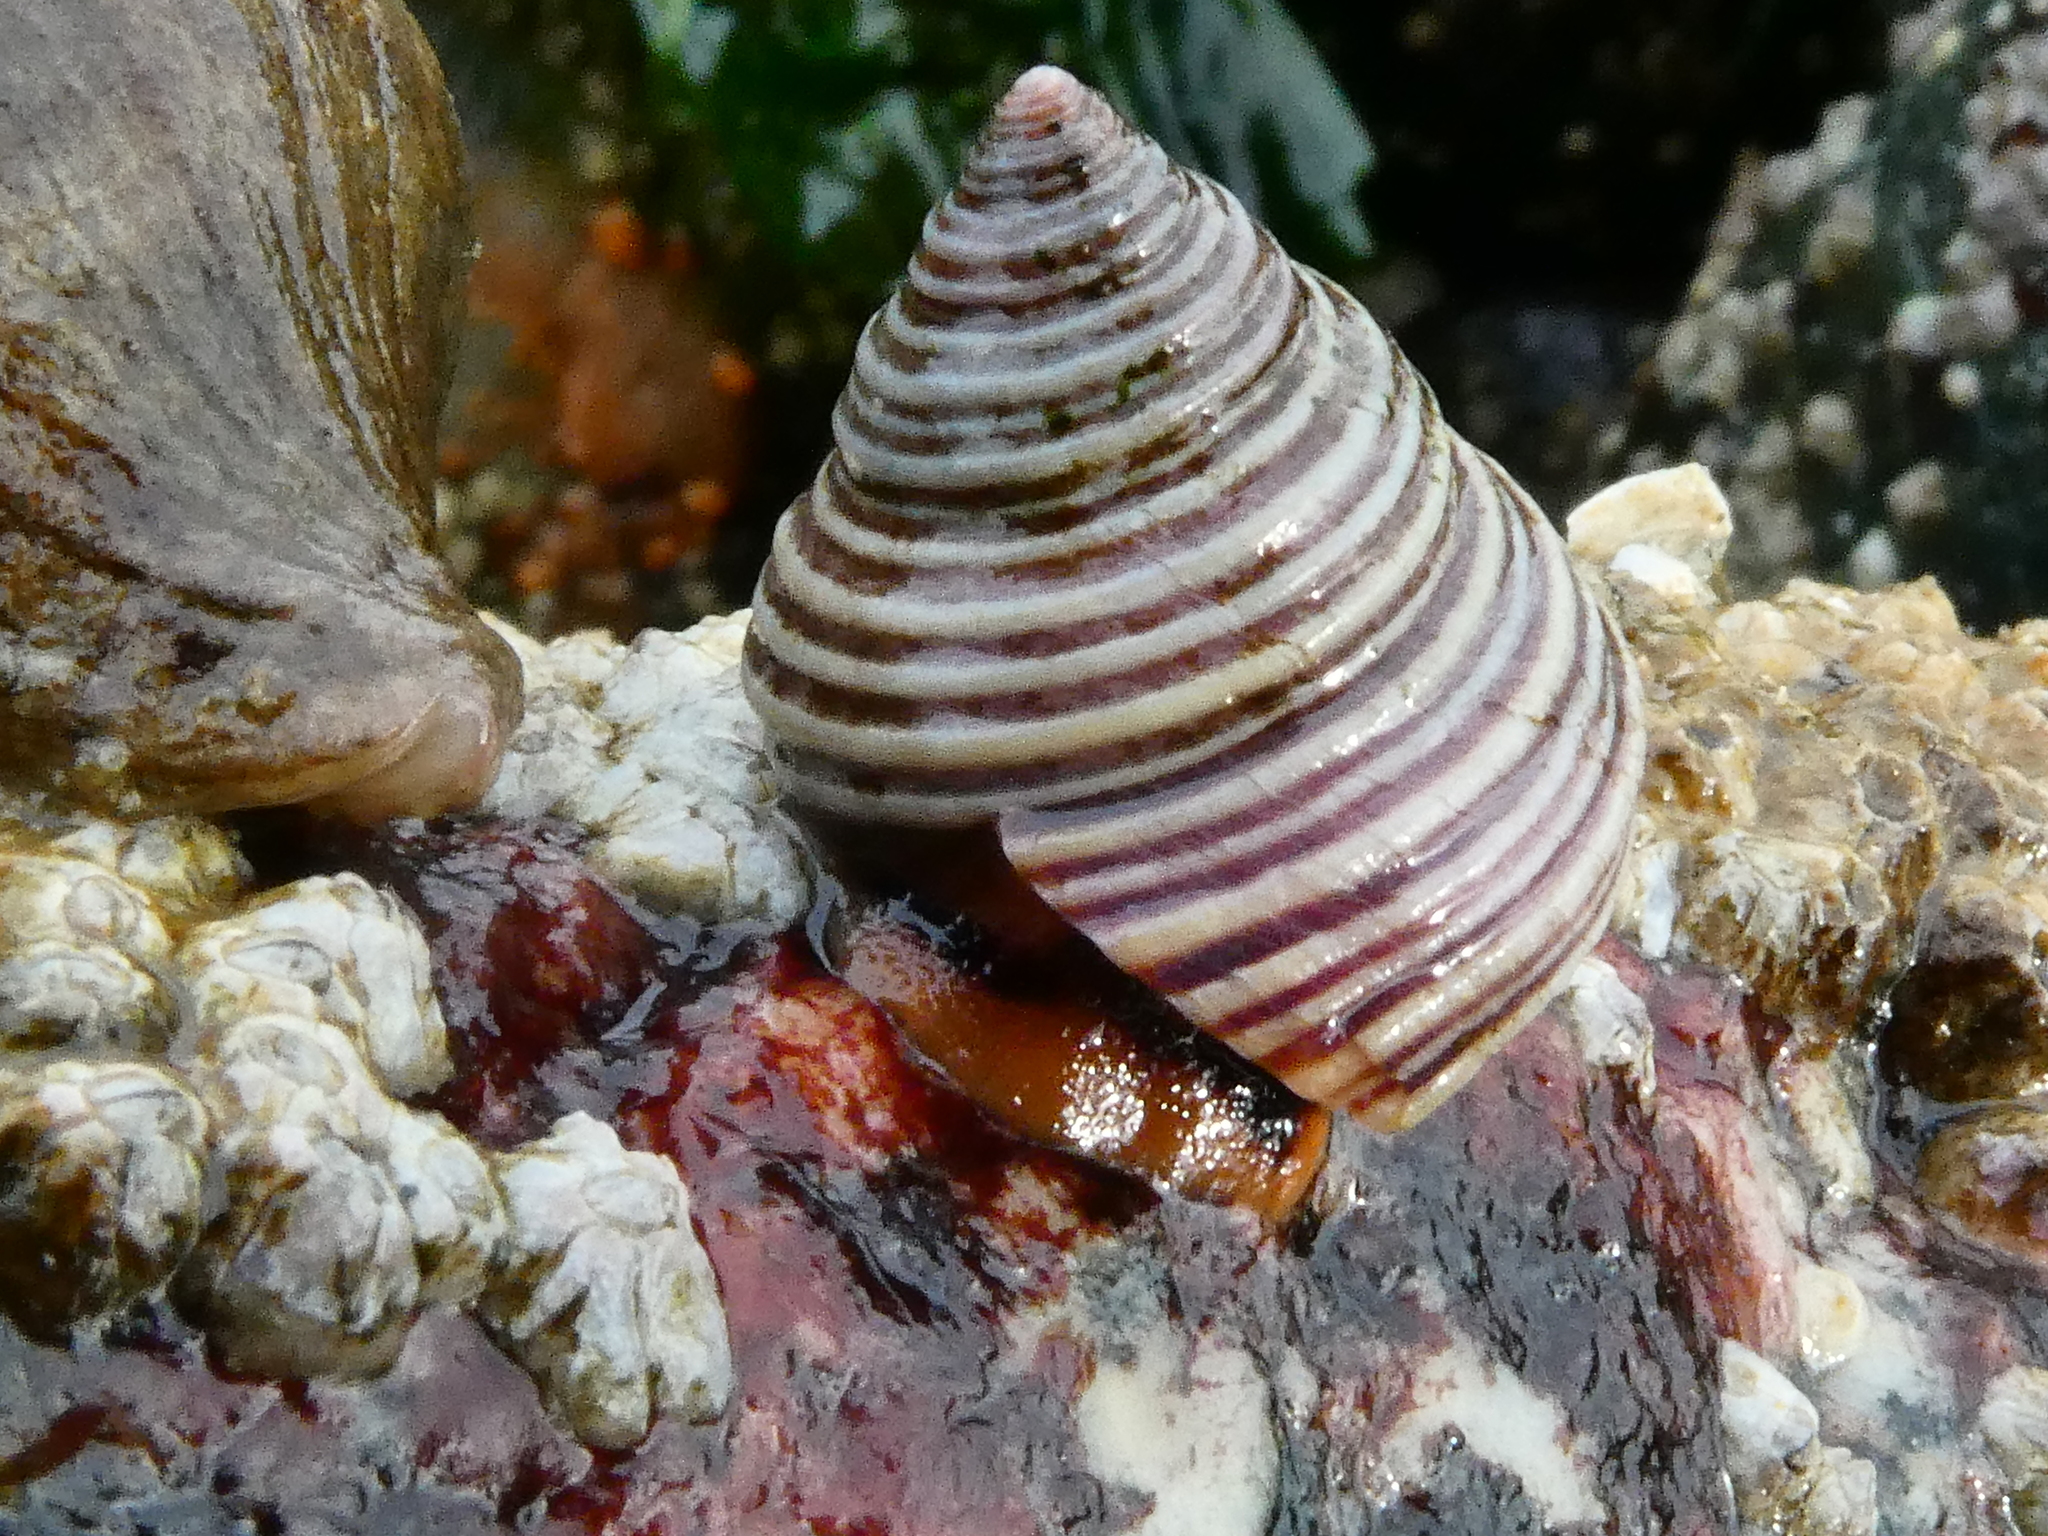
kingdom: Animalia
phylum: Mollusca
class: Gastropoda
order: Trochida
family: Calliostomatidae
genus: Calliostoma
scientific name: Calliostoma ligatum
